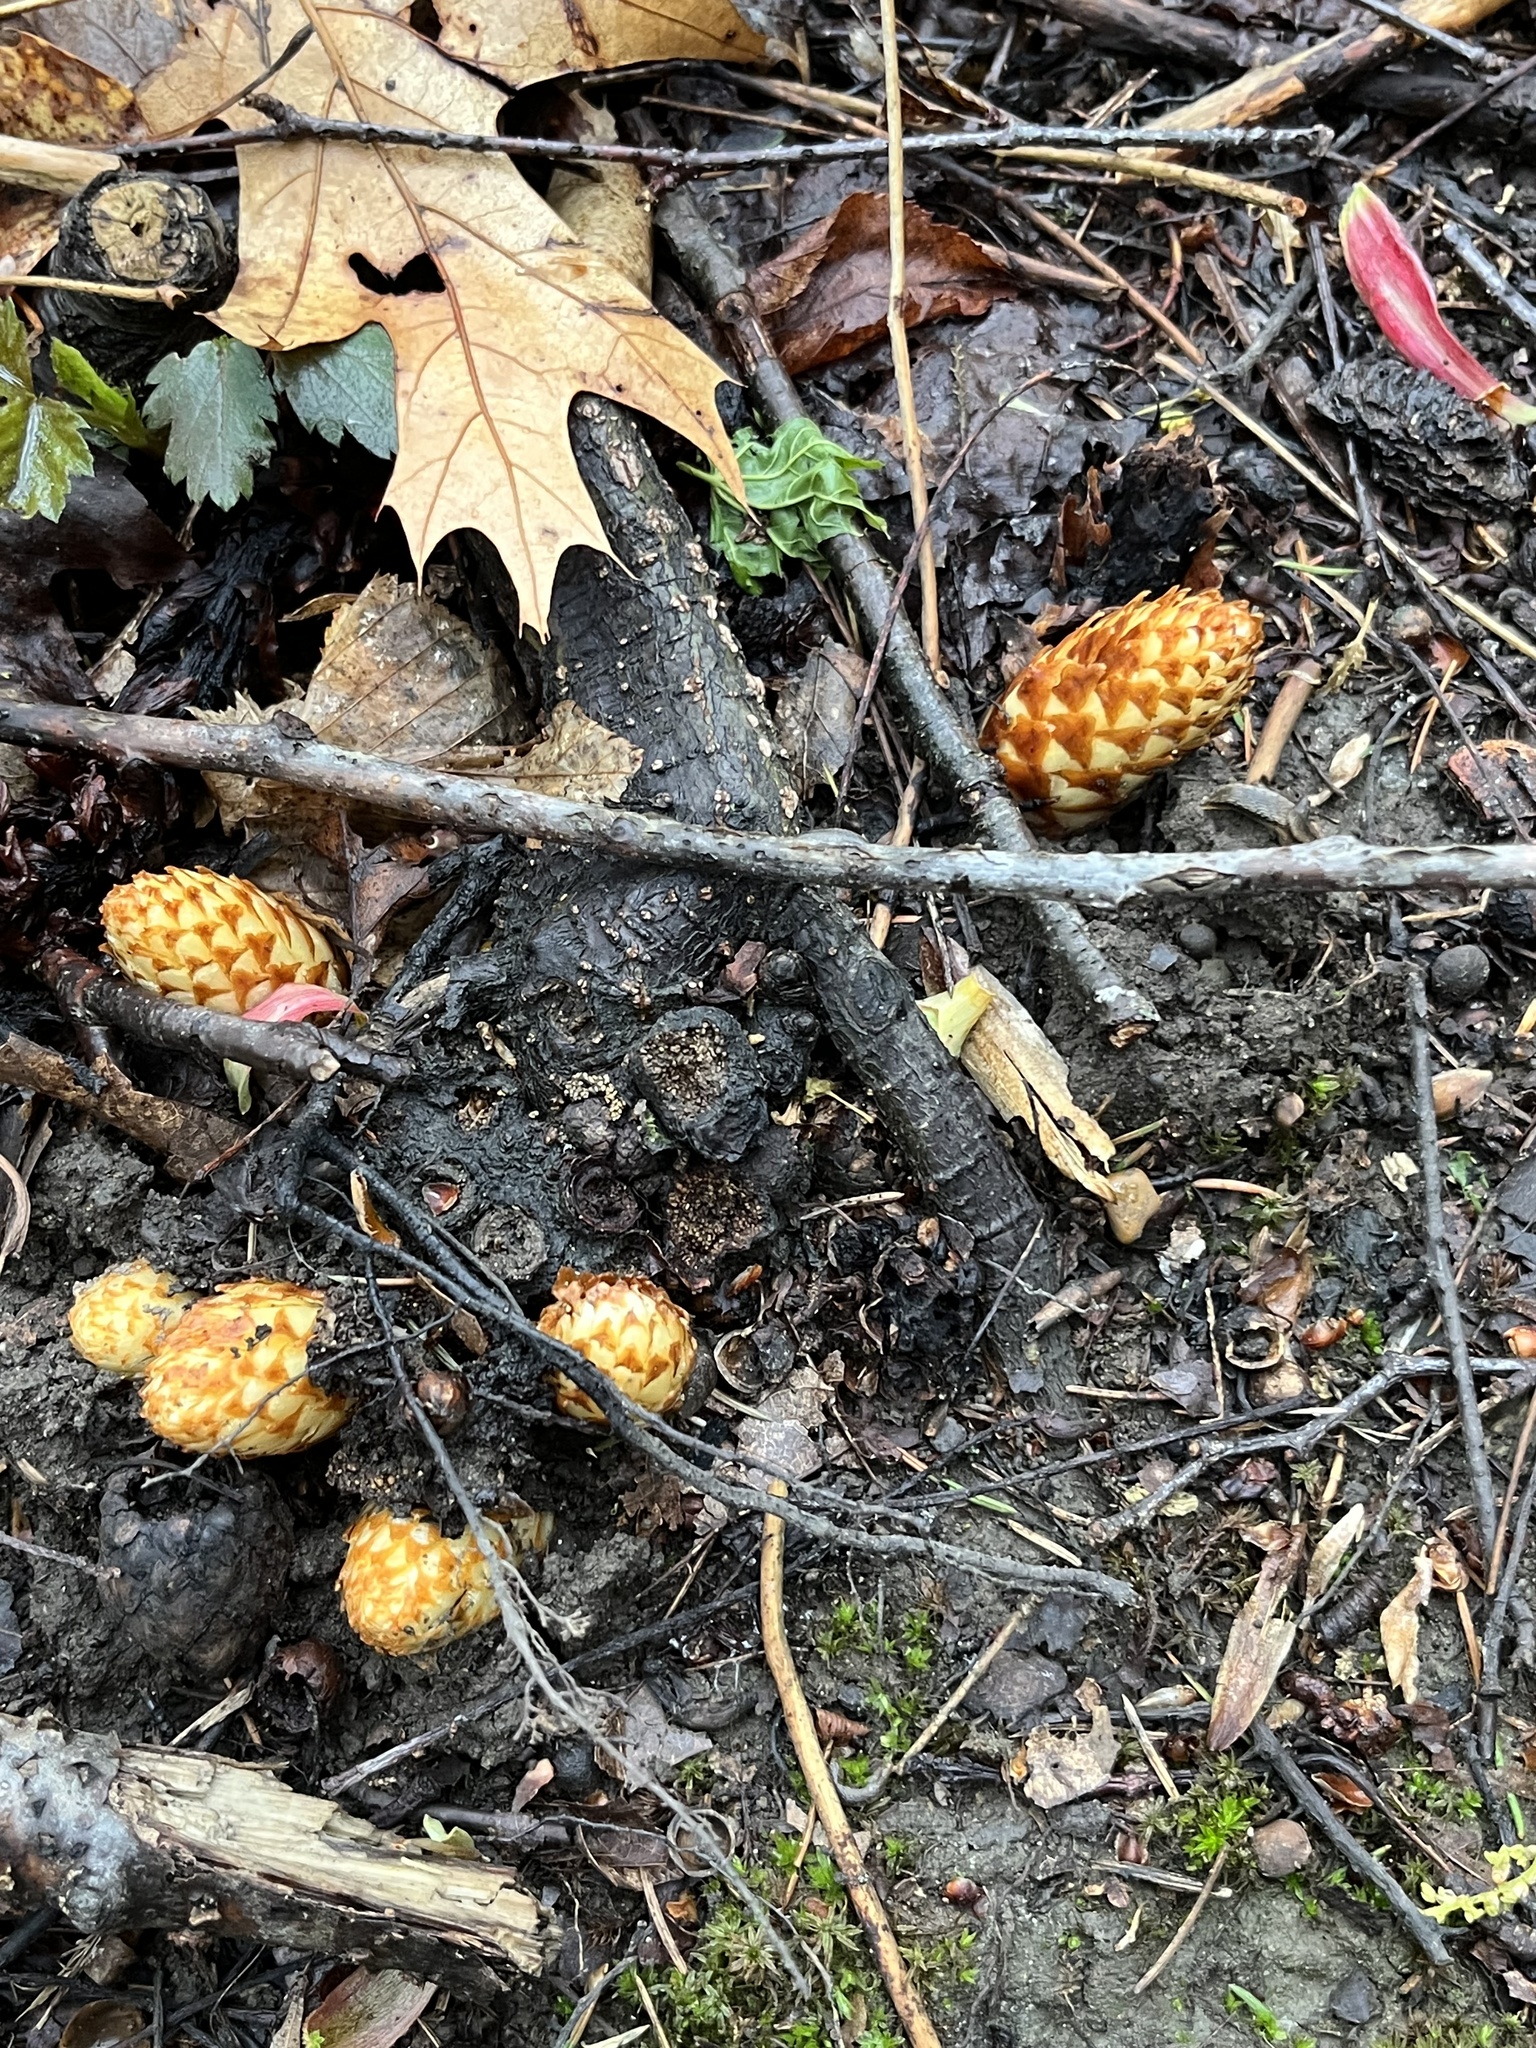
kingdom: Plantae
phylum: Tracheophyta
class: Magnoliopsida
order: Lamiales
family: Orobanchaceae
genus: Conopholis
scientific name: Conopholis americana
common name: American cancer-root
